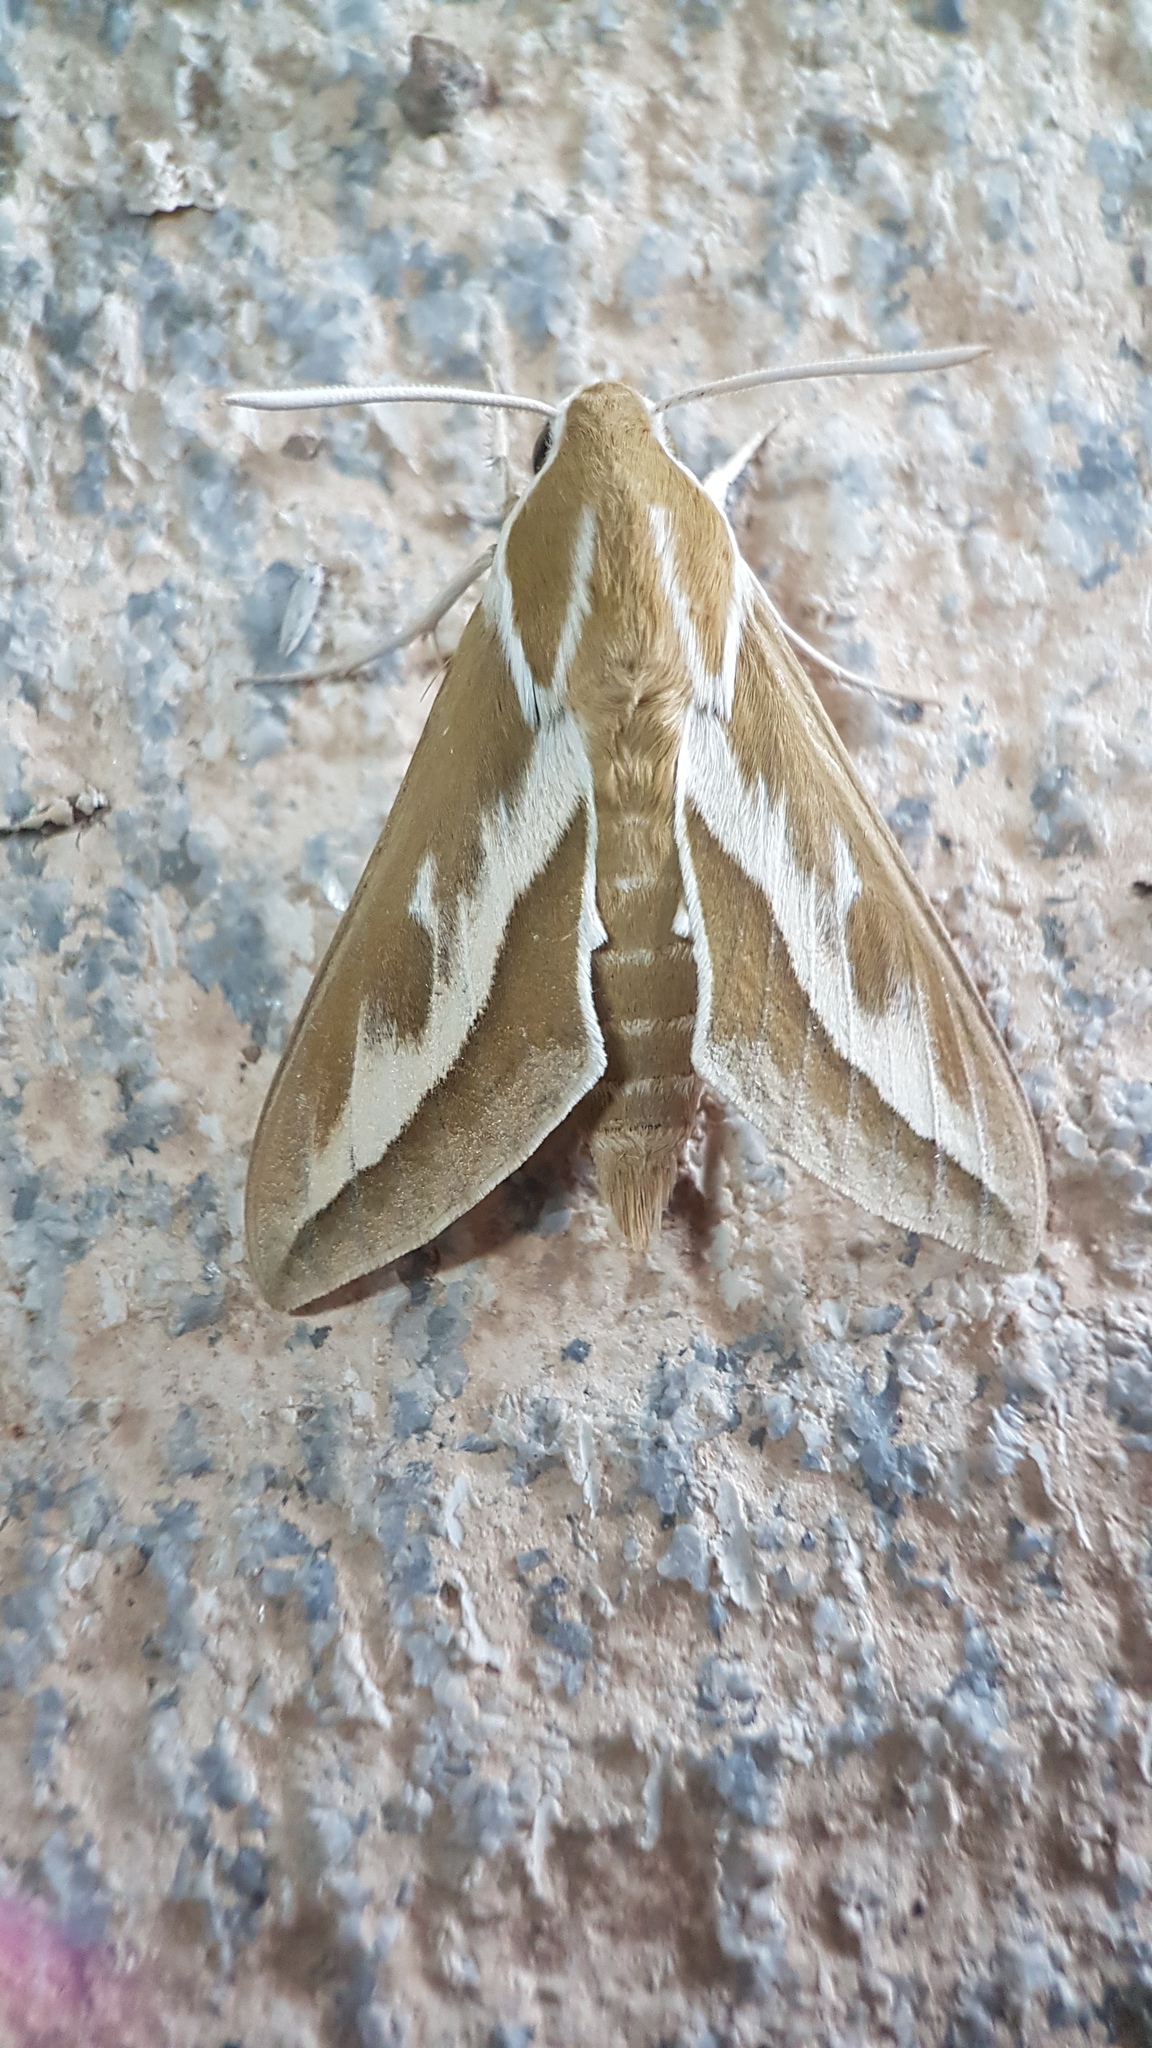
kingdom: Animalia
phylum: Arthropoda
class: Insecta
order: Lepidoptera
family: Sphingidae
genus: Hyles
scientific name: Hyles zygophylli
